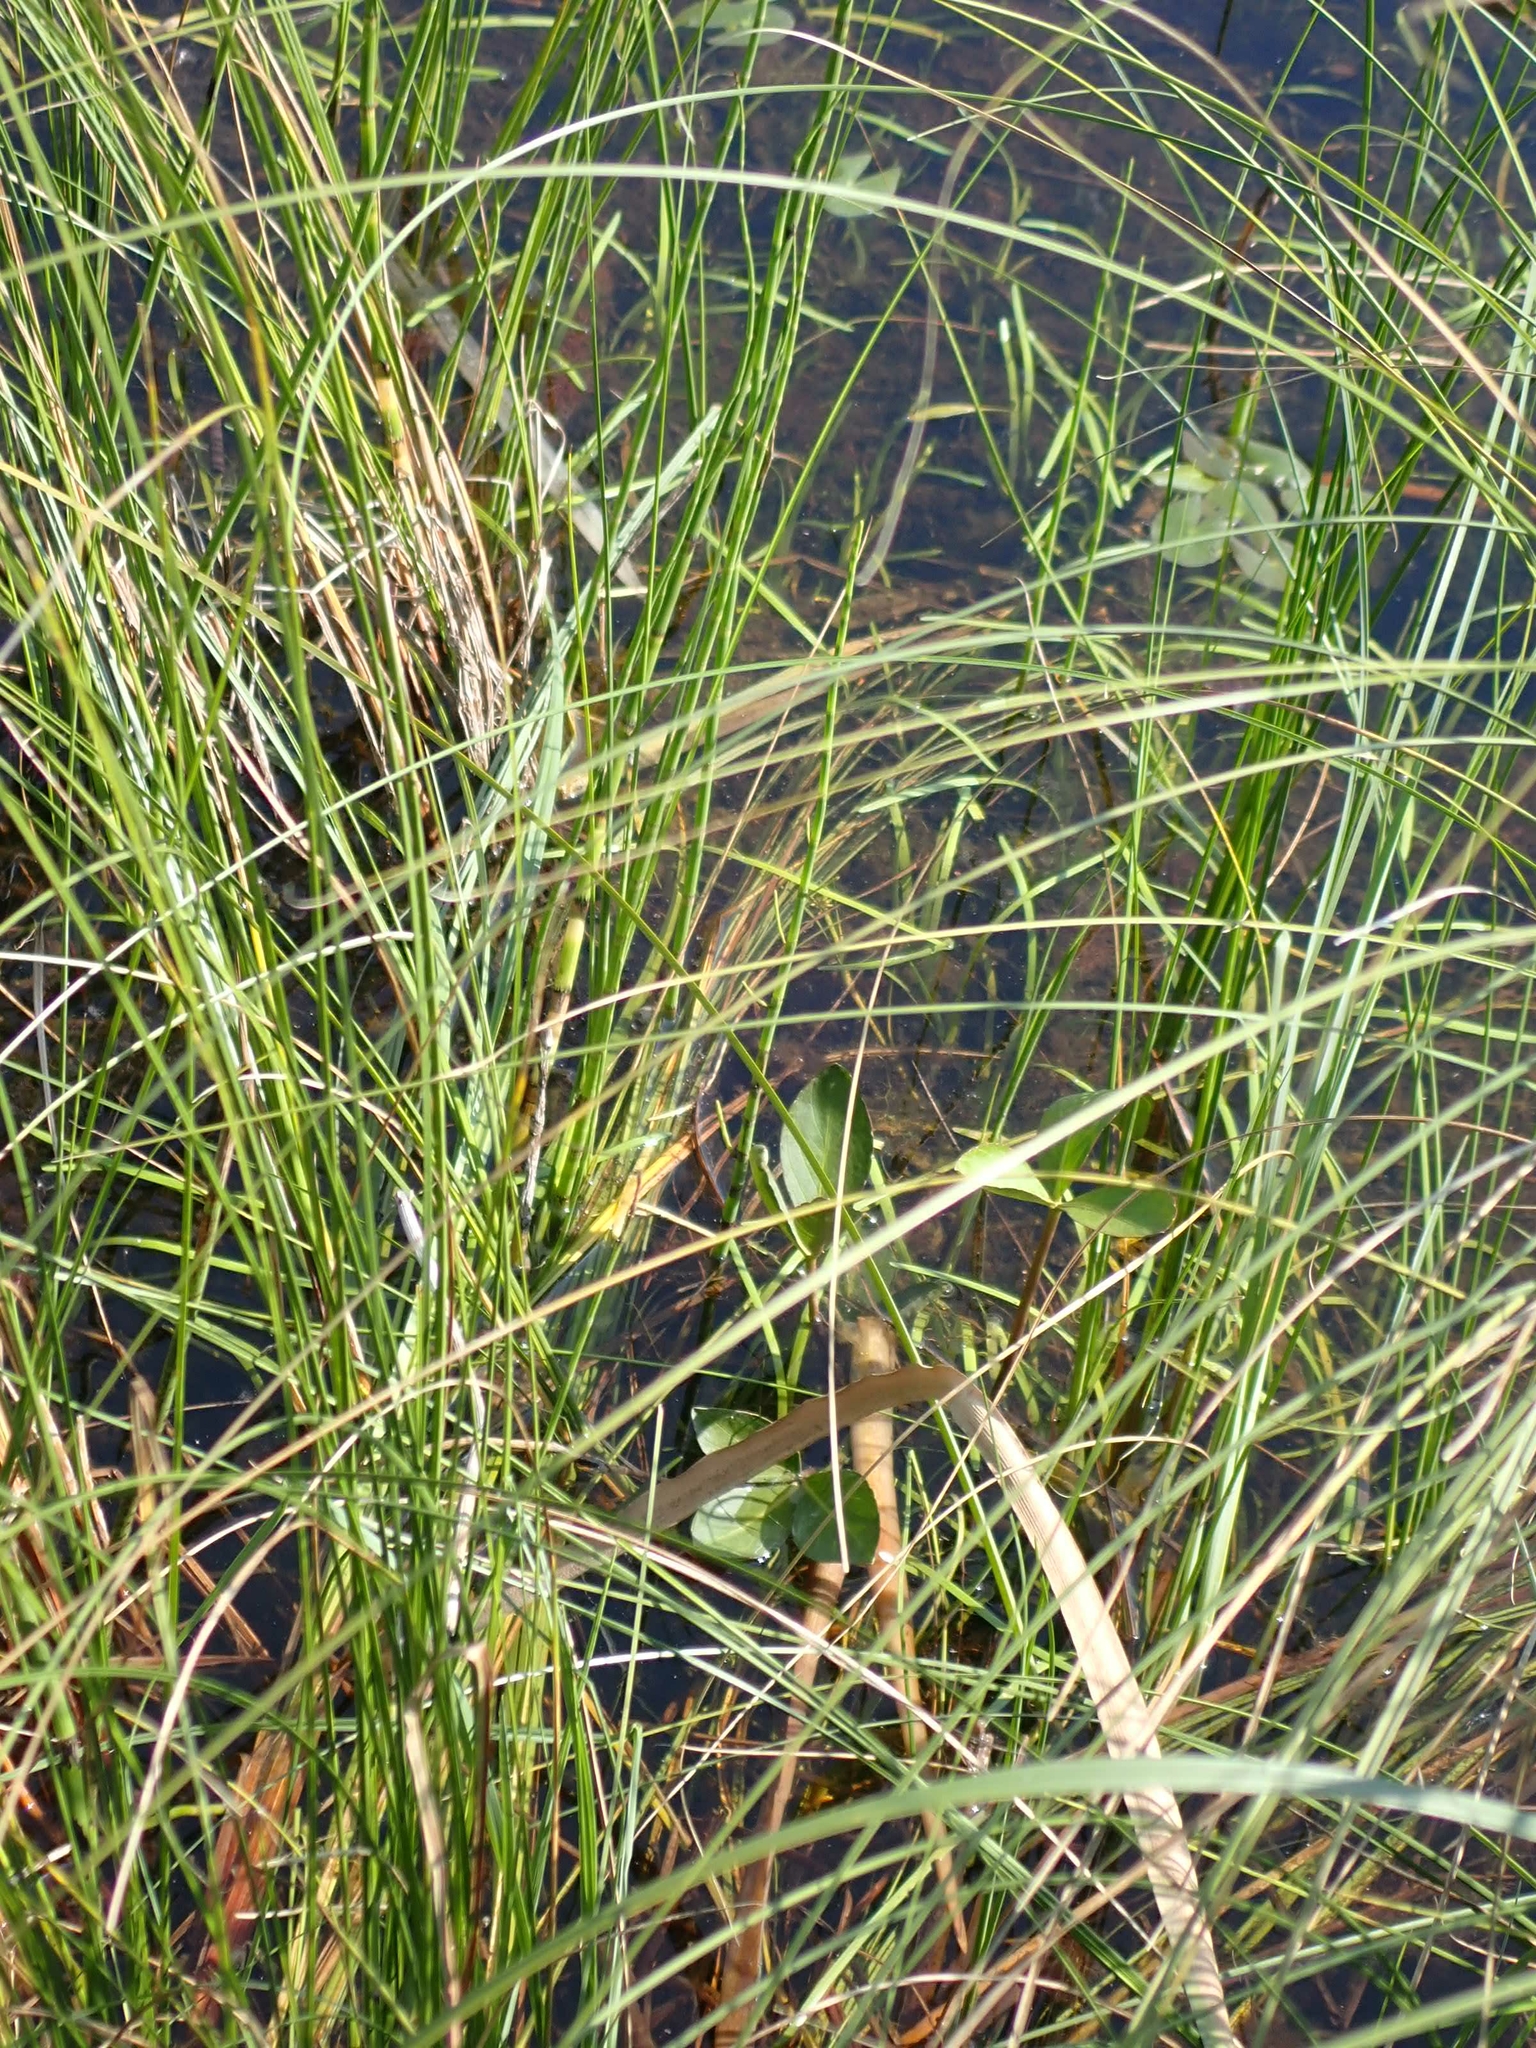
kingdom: Plantae
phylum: Tracheophyta
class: Magnoliopsida
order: Asterales
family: Menyanthaceae
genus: Menyanthes
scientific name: Menyanthes trifoliata
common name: Bogbean
